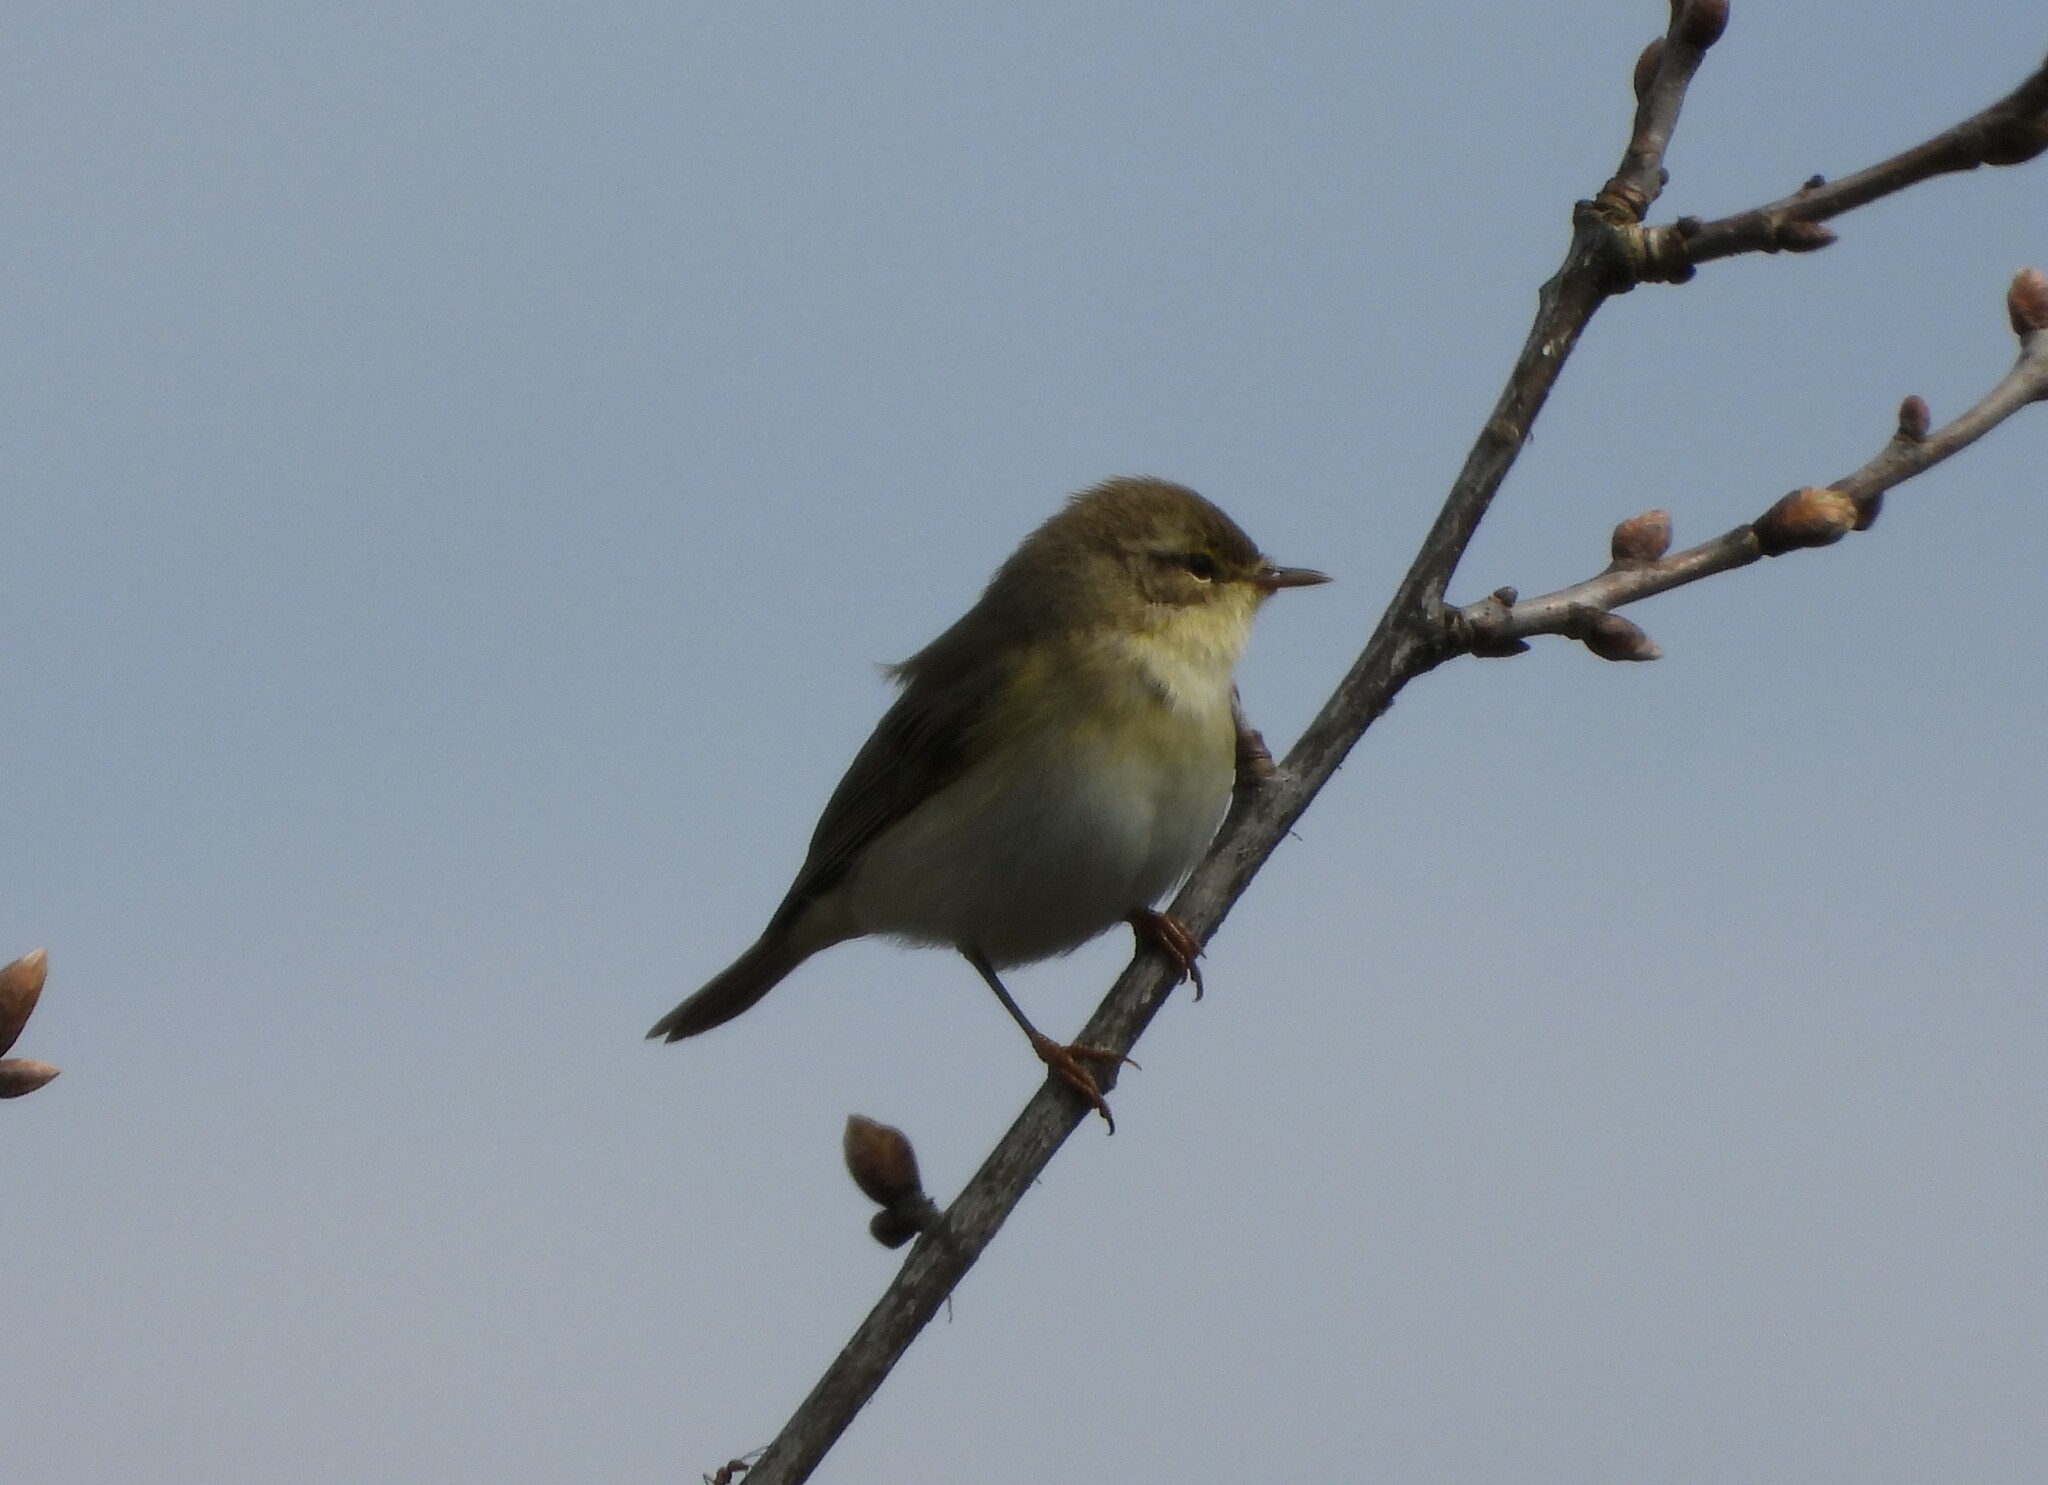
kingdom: Animalia
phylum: Chordata
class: Aves
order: Passeriformes
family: Phylloscopidae
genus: Phylloscopus
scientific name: Phylloscopus trochilus
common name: Willow warbler
